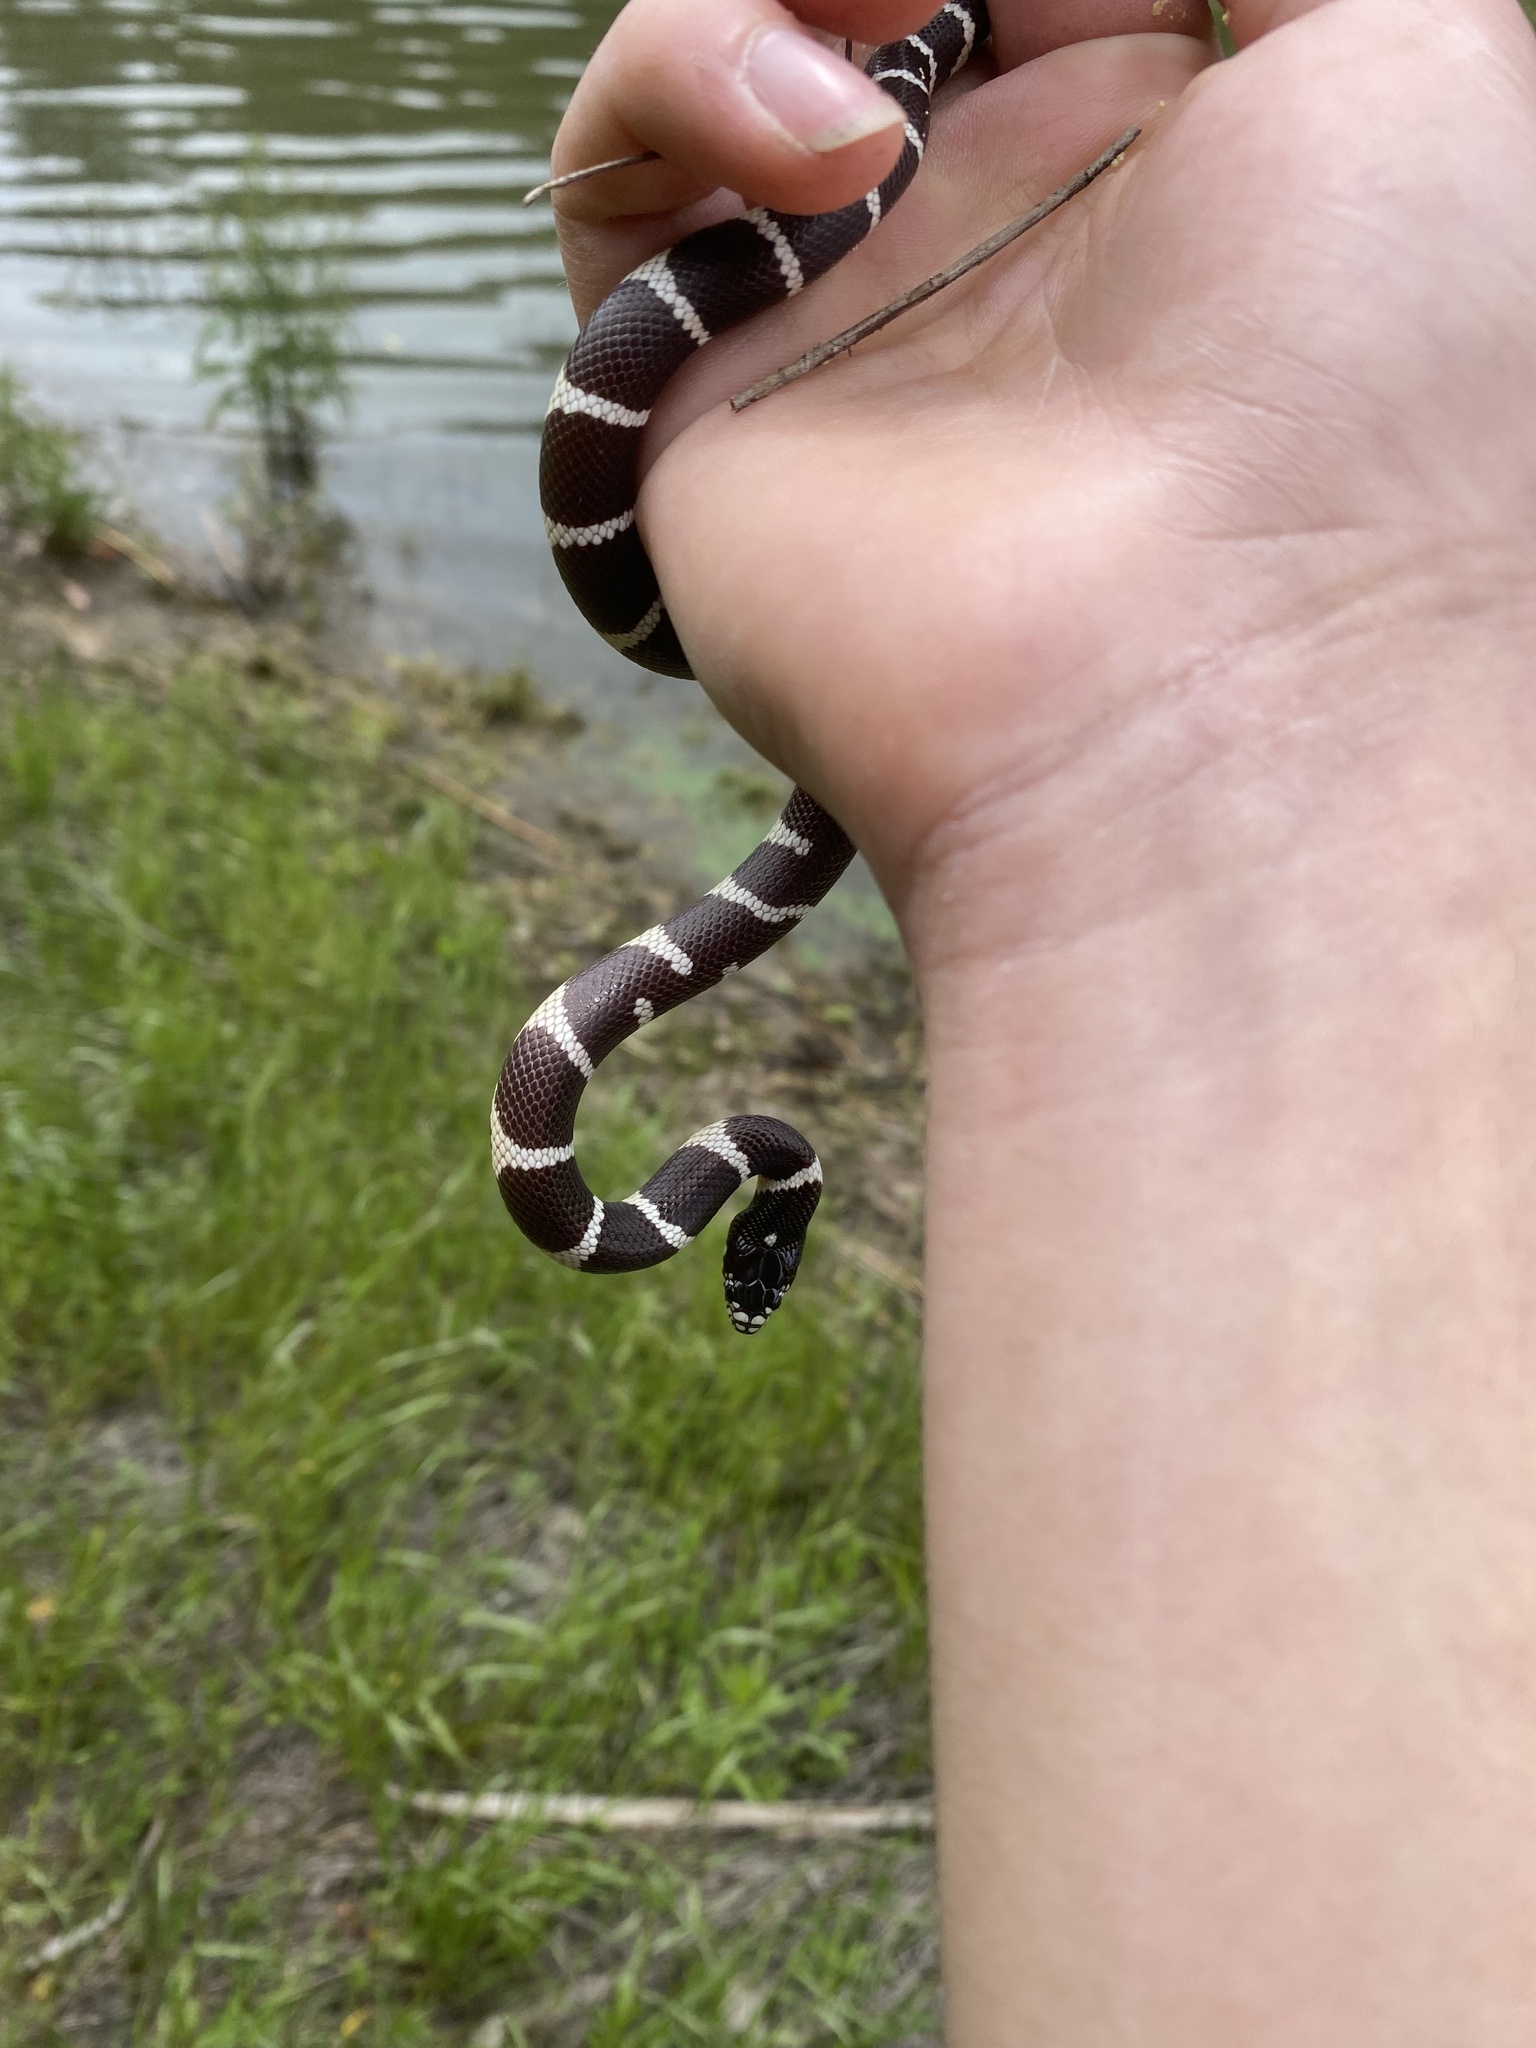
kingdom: Animalia
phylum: Chordata
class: Squamata
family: Colubridae
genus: Lampropeltis
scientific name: Lampropeltis californiae
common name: California kingsnake
